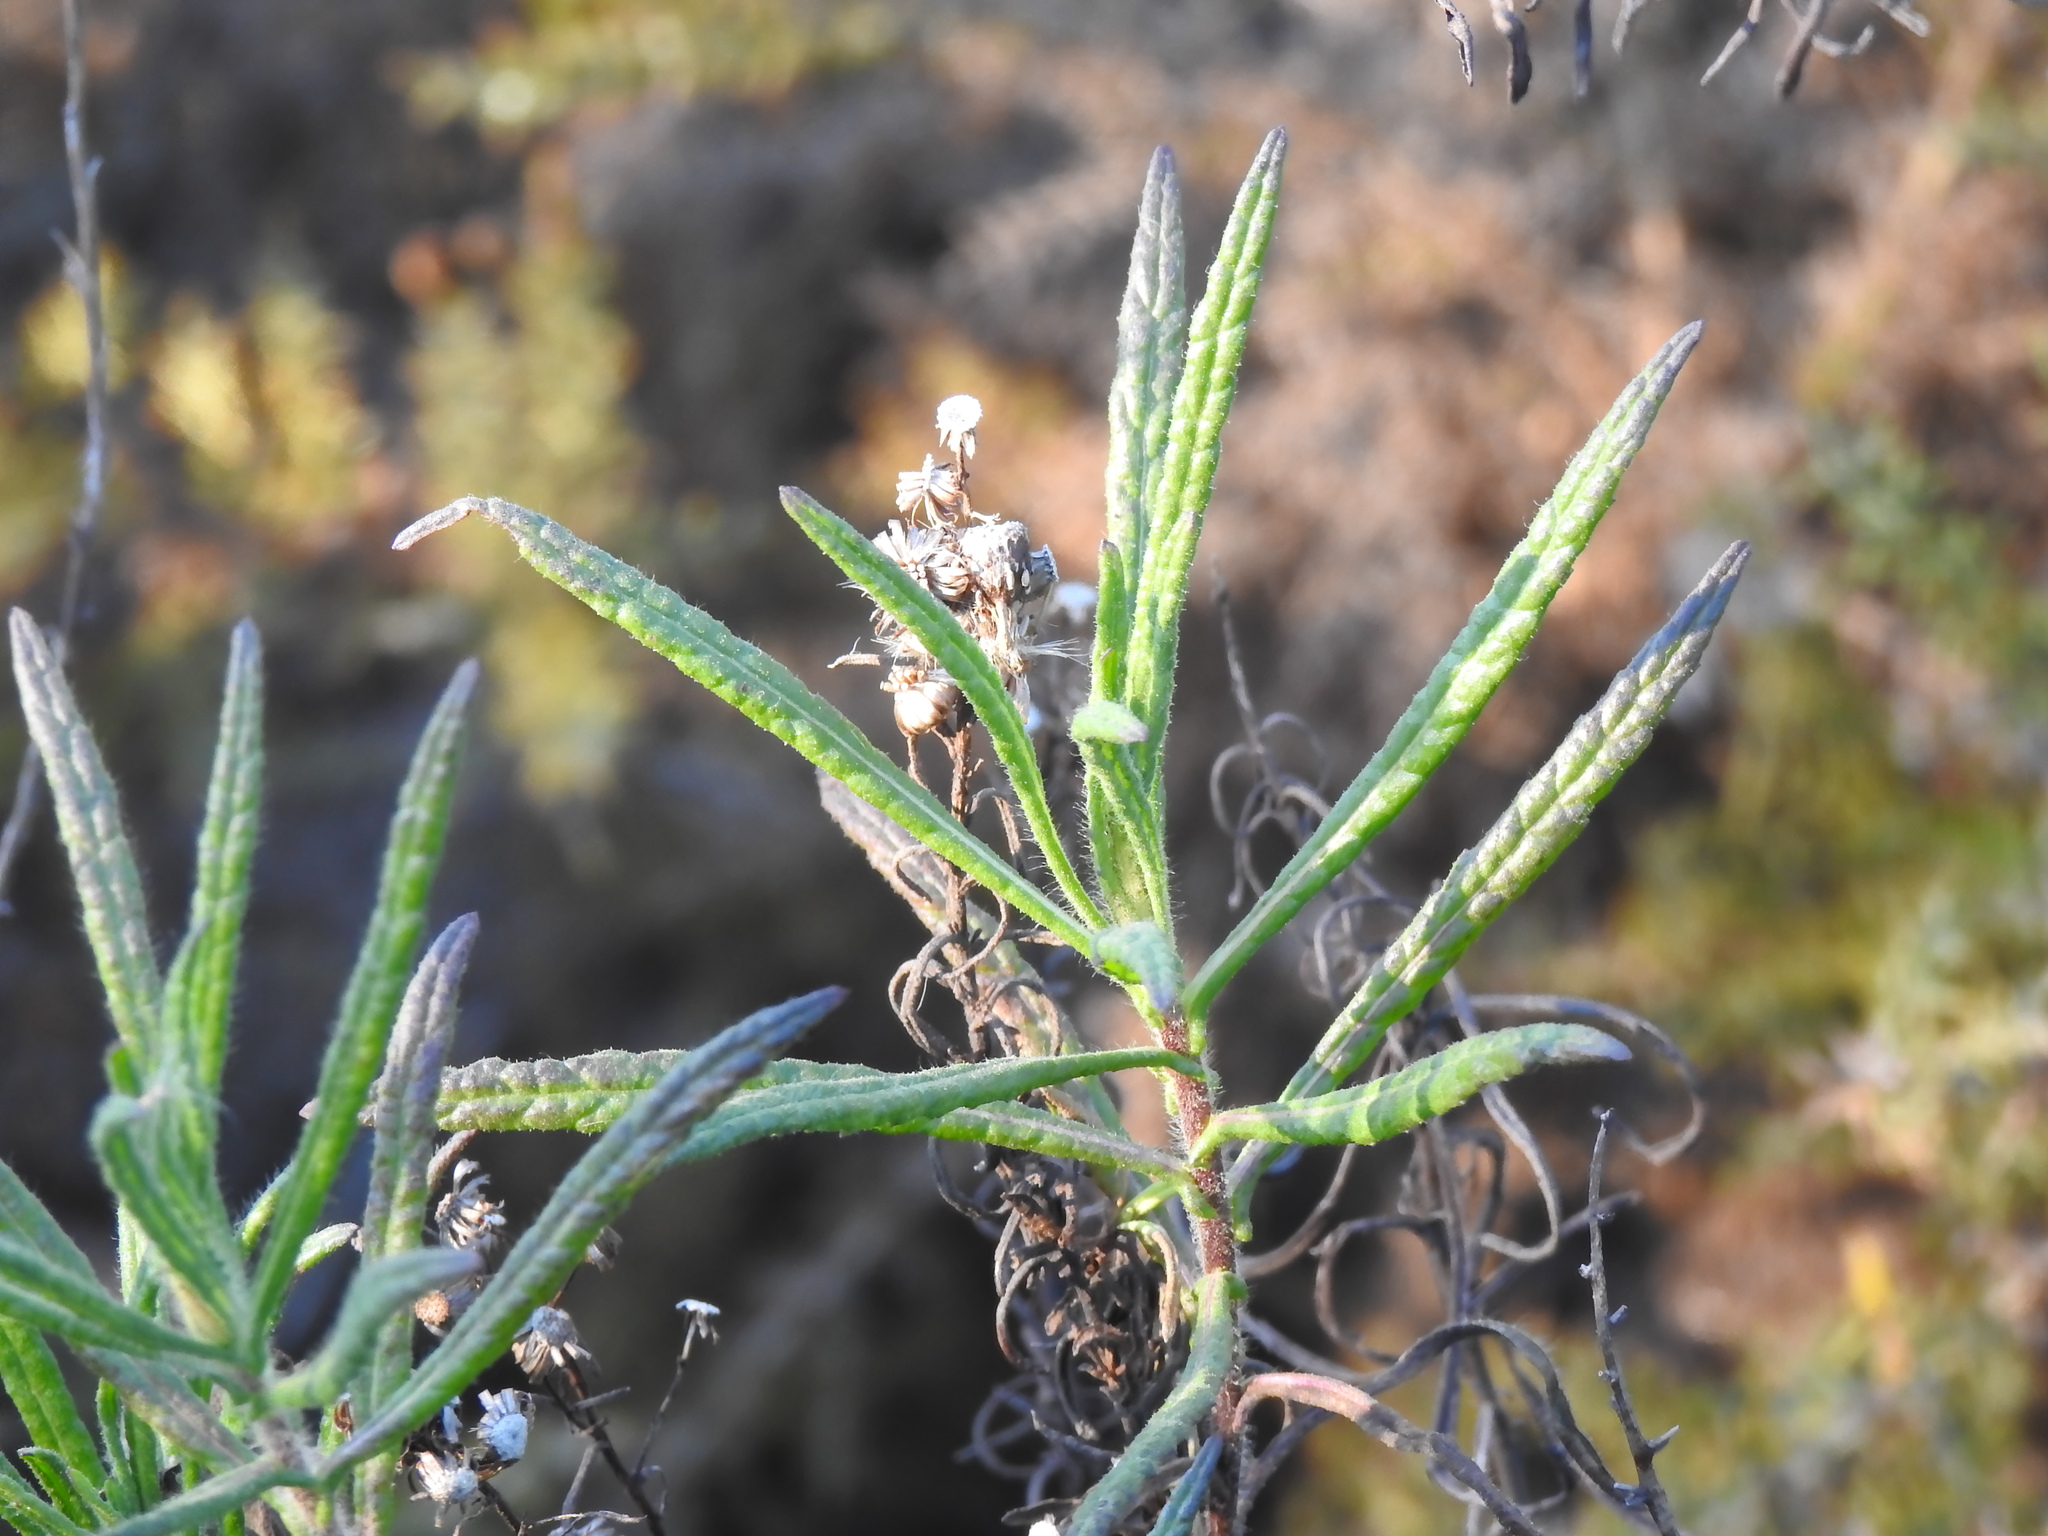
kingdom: Plantae
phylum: Tracheophyta
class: Magnoliopsida
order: Asterales
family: Asteraceae
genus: Dittrichia
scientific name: Dittrichia viscosa
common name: Woody fleabane
